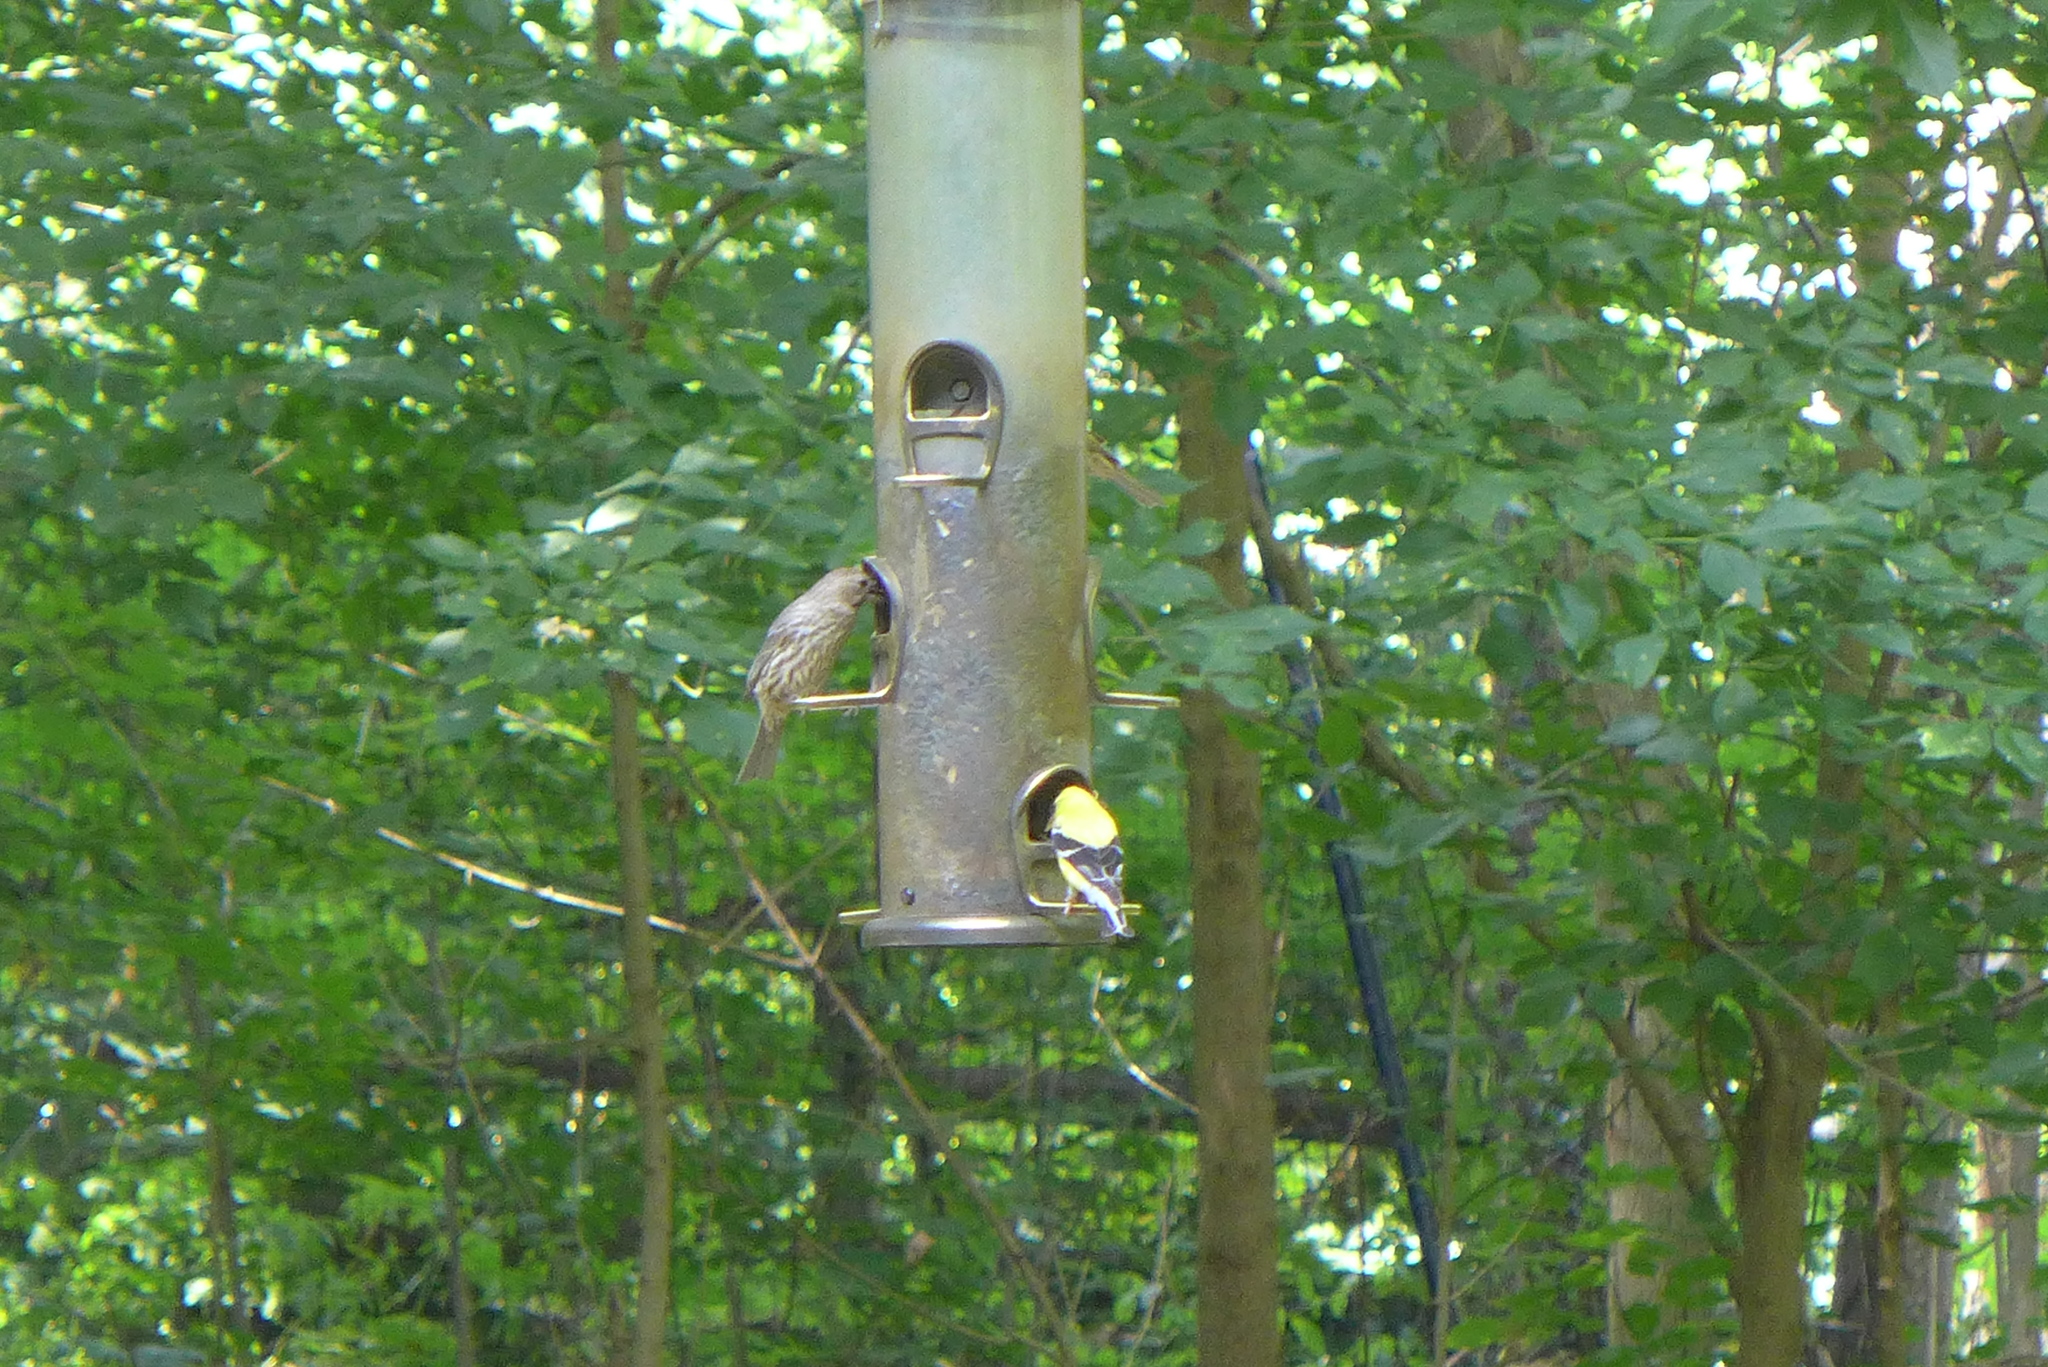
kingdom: Animalia
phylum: Chordata
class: Aves
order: Passeriformes
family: Fringillidae
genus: Spinus
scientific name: Spinus tristis
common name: American goldfinch
